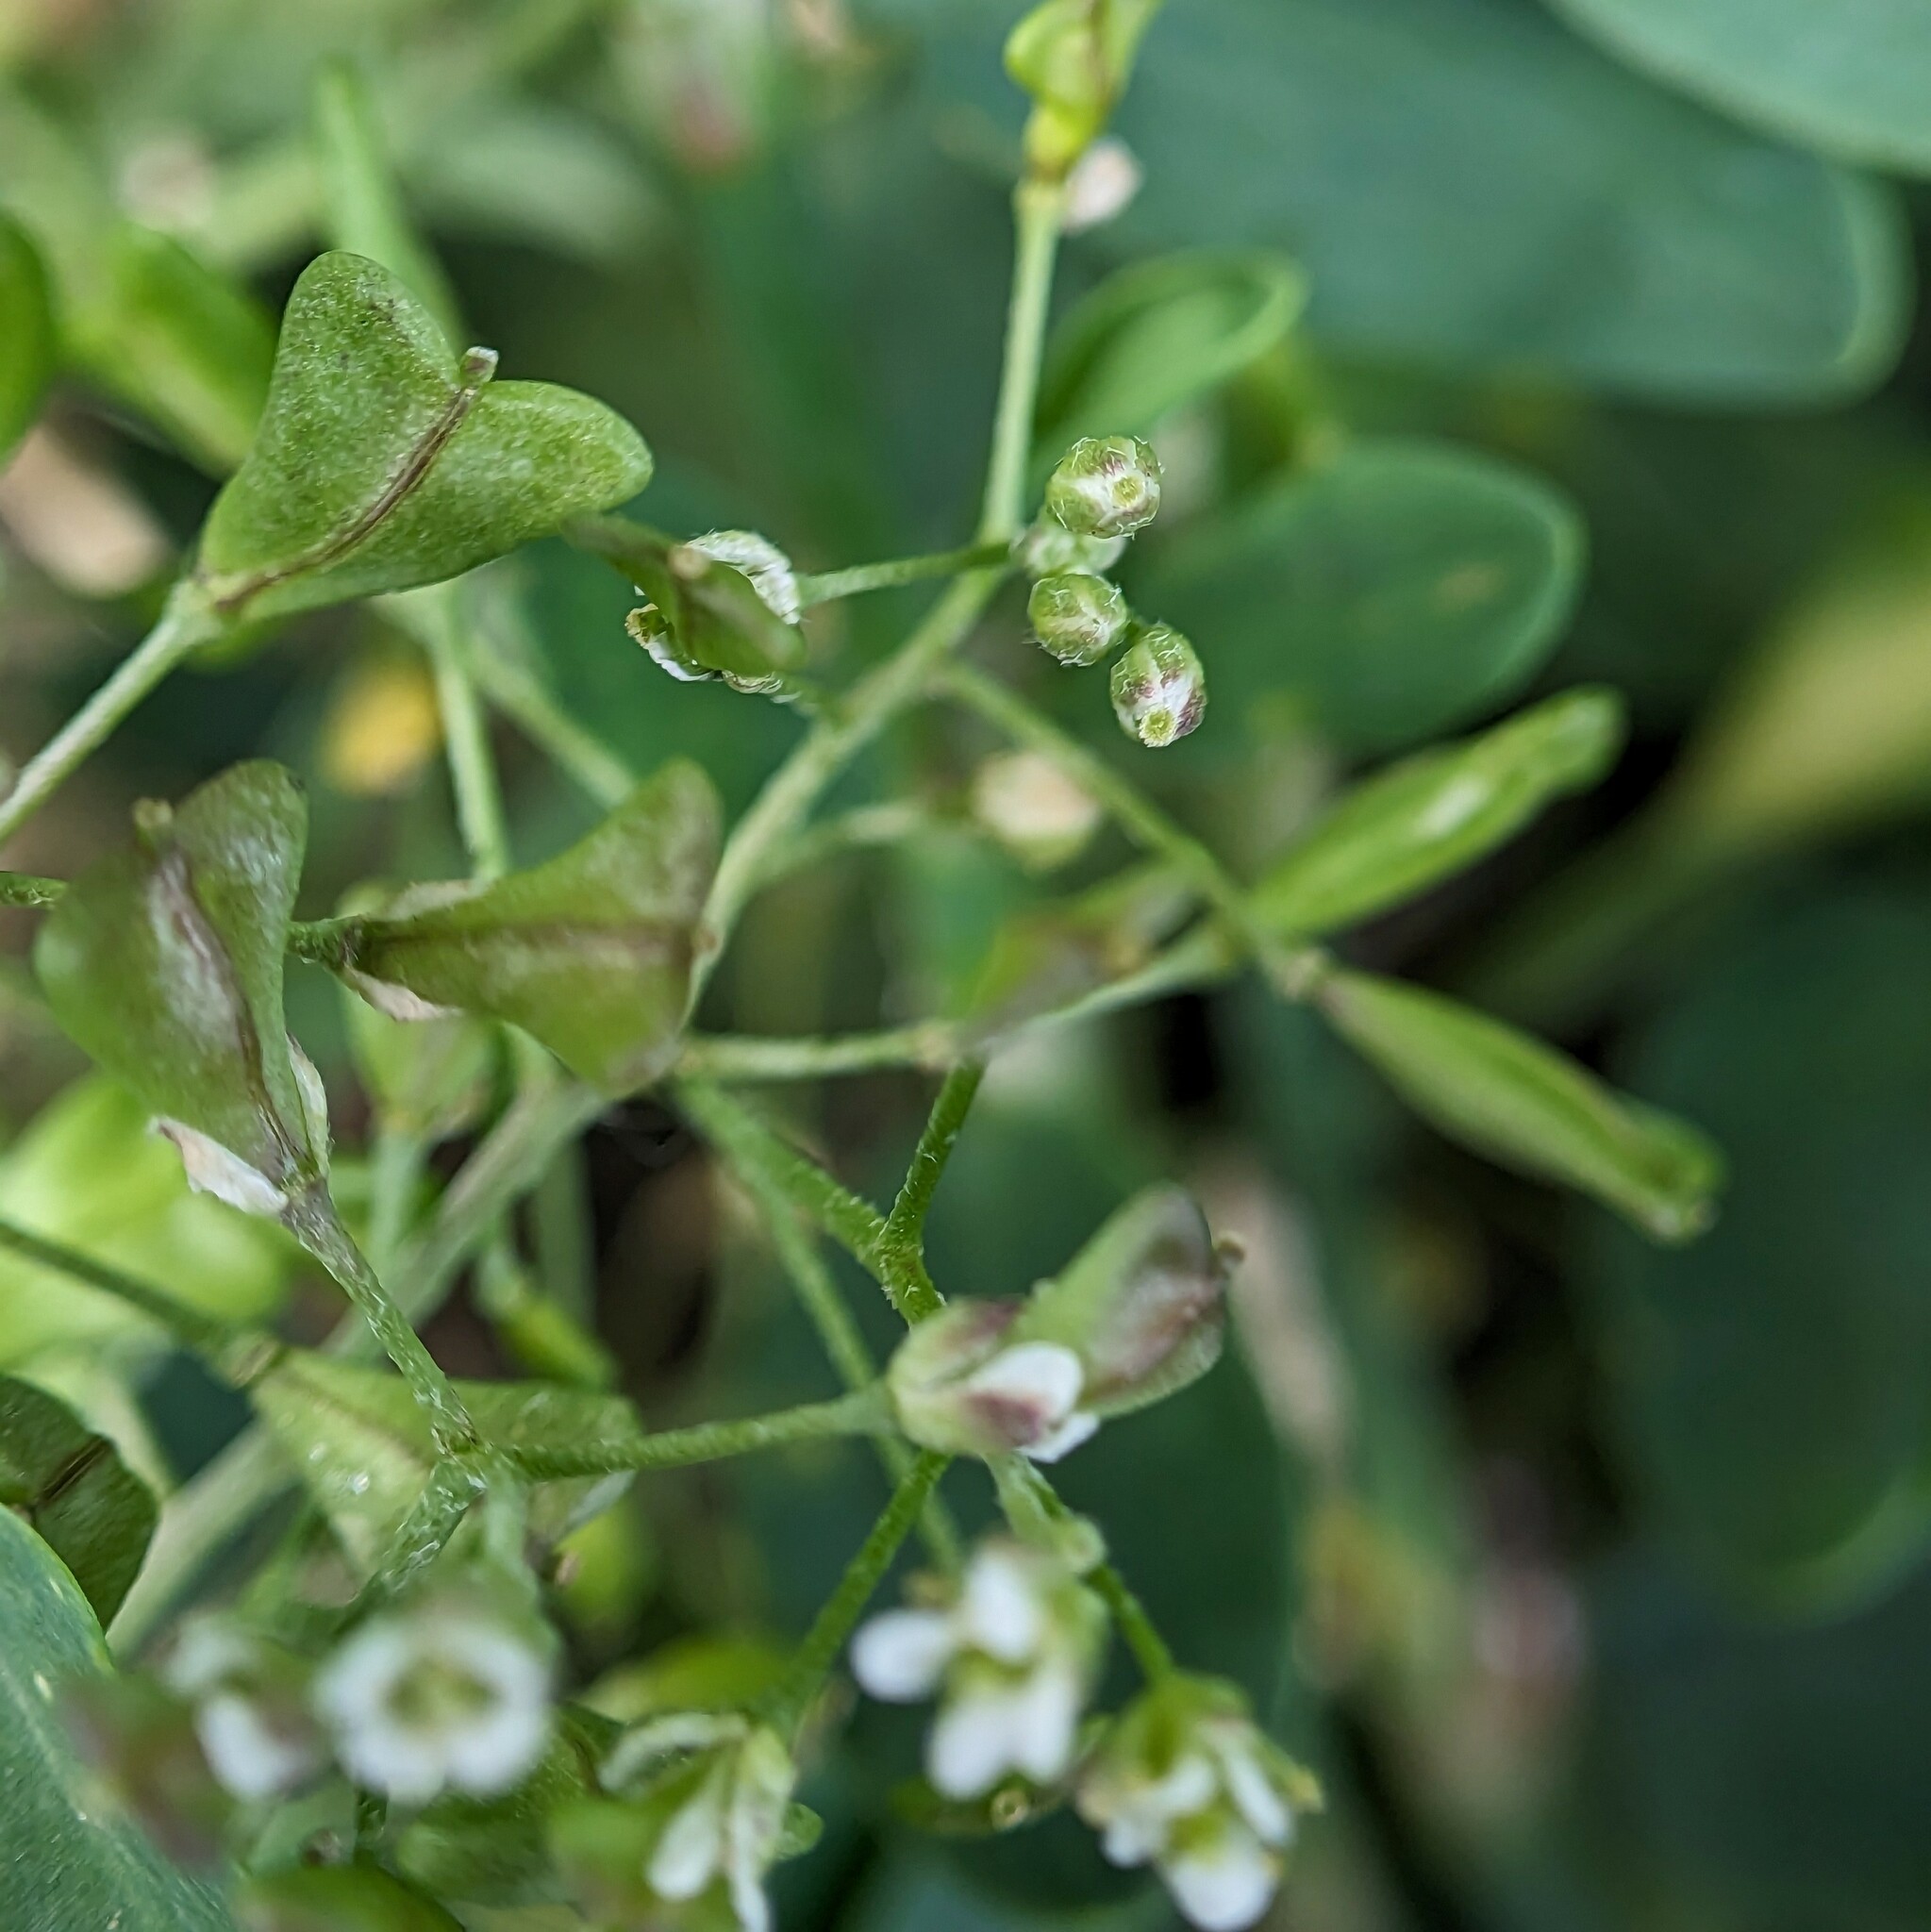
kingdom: Plantae
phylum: Tracheophyta
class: Magnoliopsida
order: Brassicales
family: Brassicaceae
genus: Capsella
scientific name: Capsella bursa-pastoris
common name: Shepherd's purse
